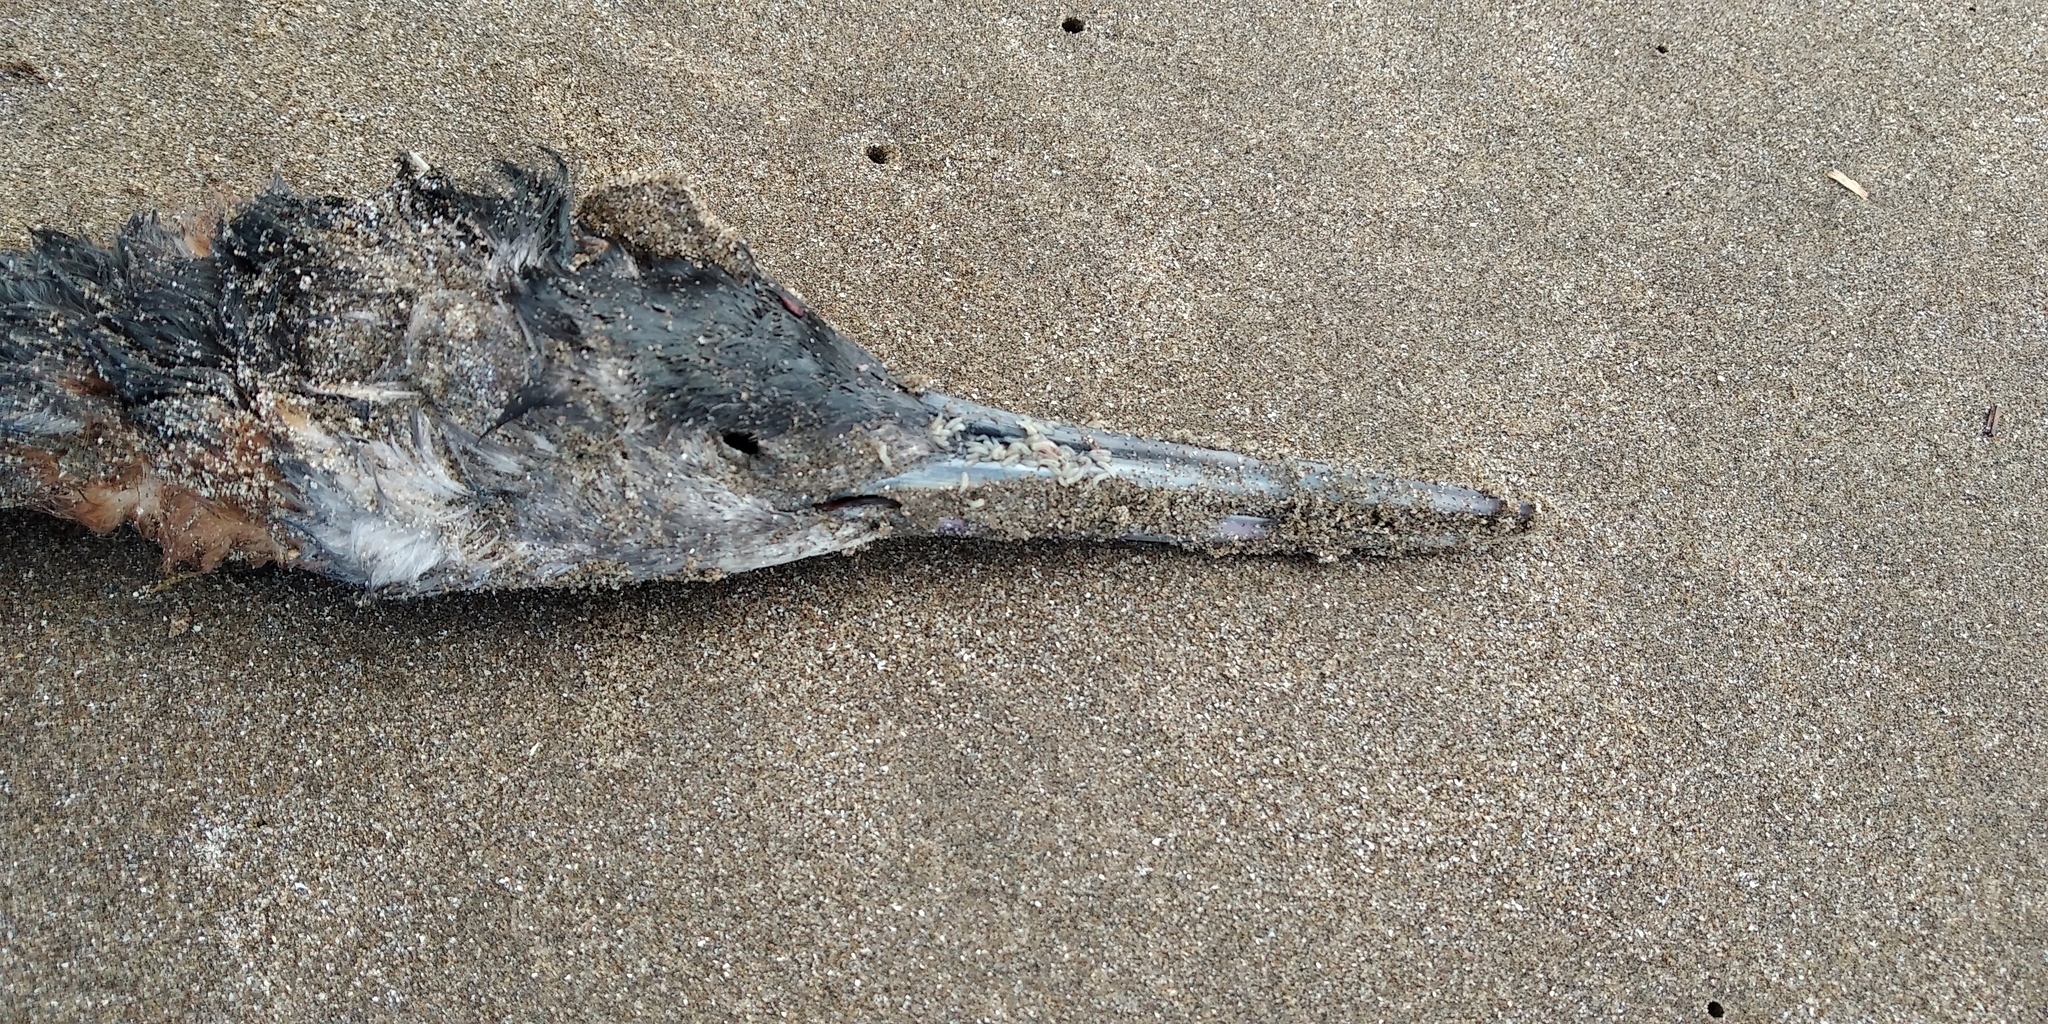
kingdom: Animalia
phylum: Chordata
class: Aves
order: Podicipediformes
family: Podicipedidae
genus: Podiceps
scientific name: Podiceps major
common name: Great grebe
